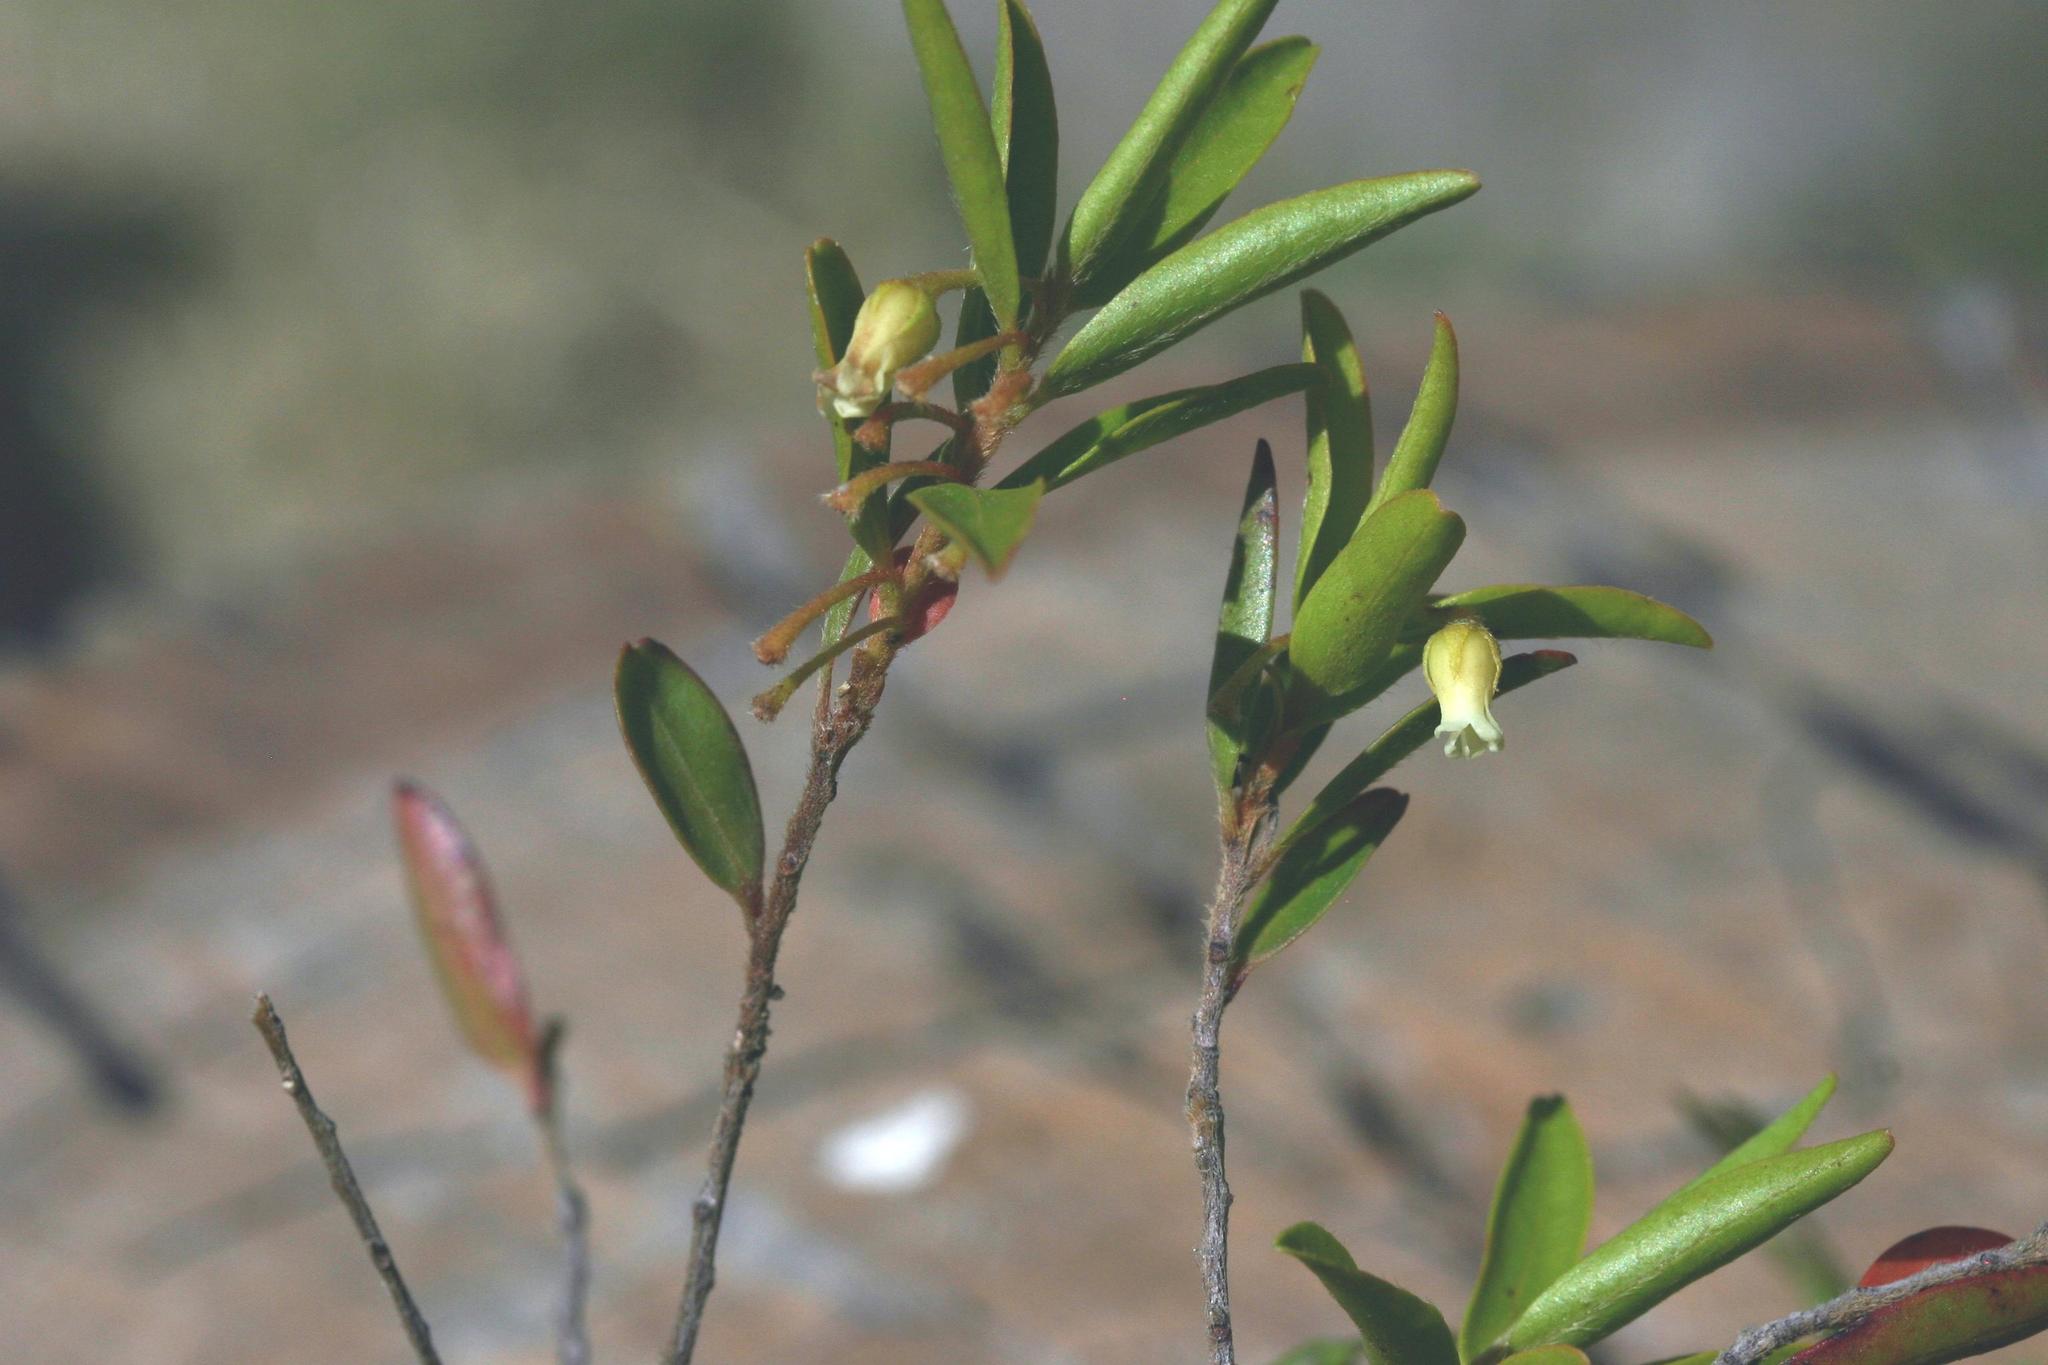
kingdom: Plantae
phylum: Tracheophyta
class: Magnoliopsida
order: Ericales
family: Ebenaceae
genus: Diospyros
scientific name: Diospyros glabra
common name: Fynbos star apple
